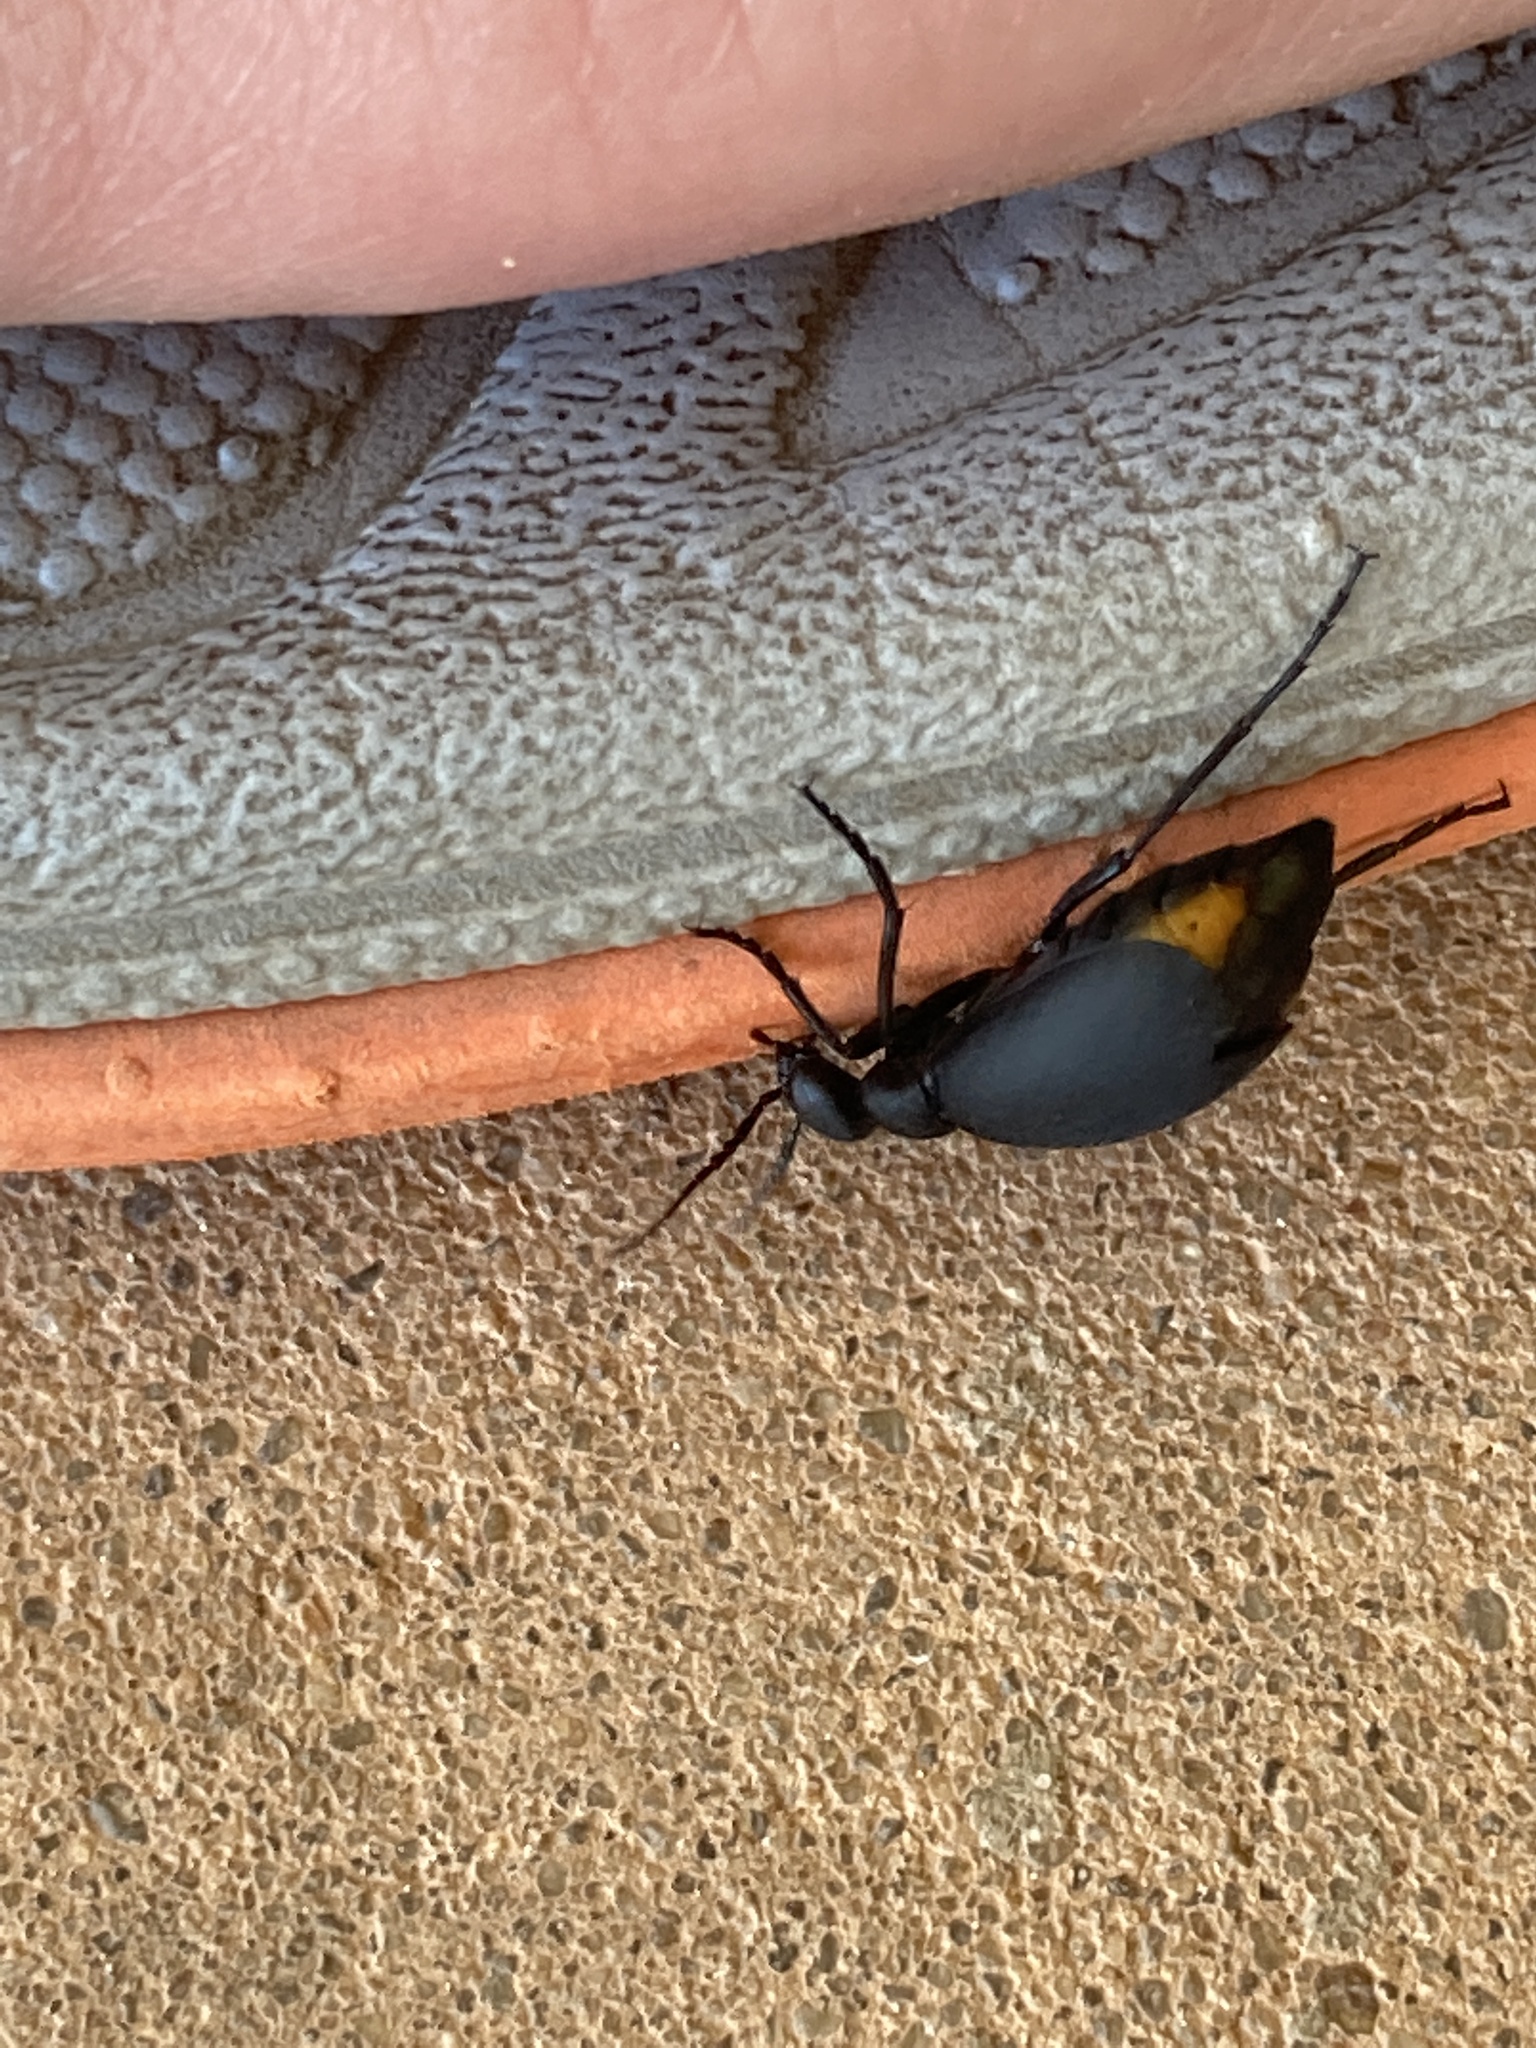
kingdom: Animalia
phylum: Arthropoda
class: Insecta
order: Coleoptera
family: Meloidae
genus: Epicauta
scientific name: Epicauta conferta
